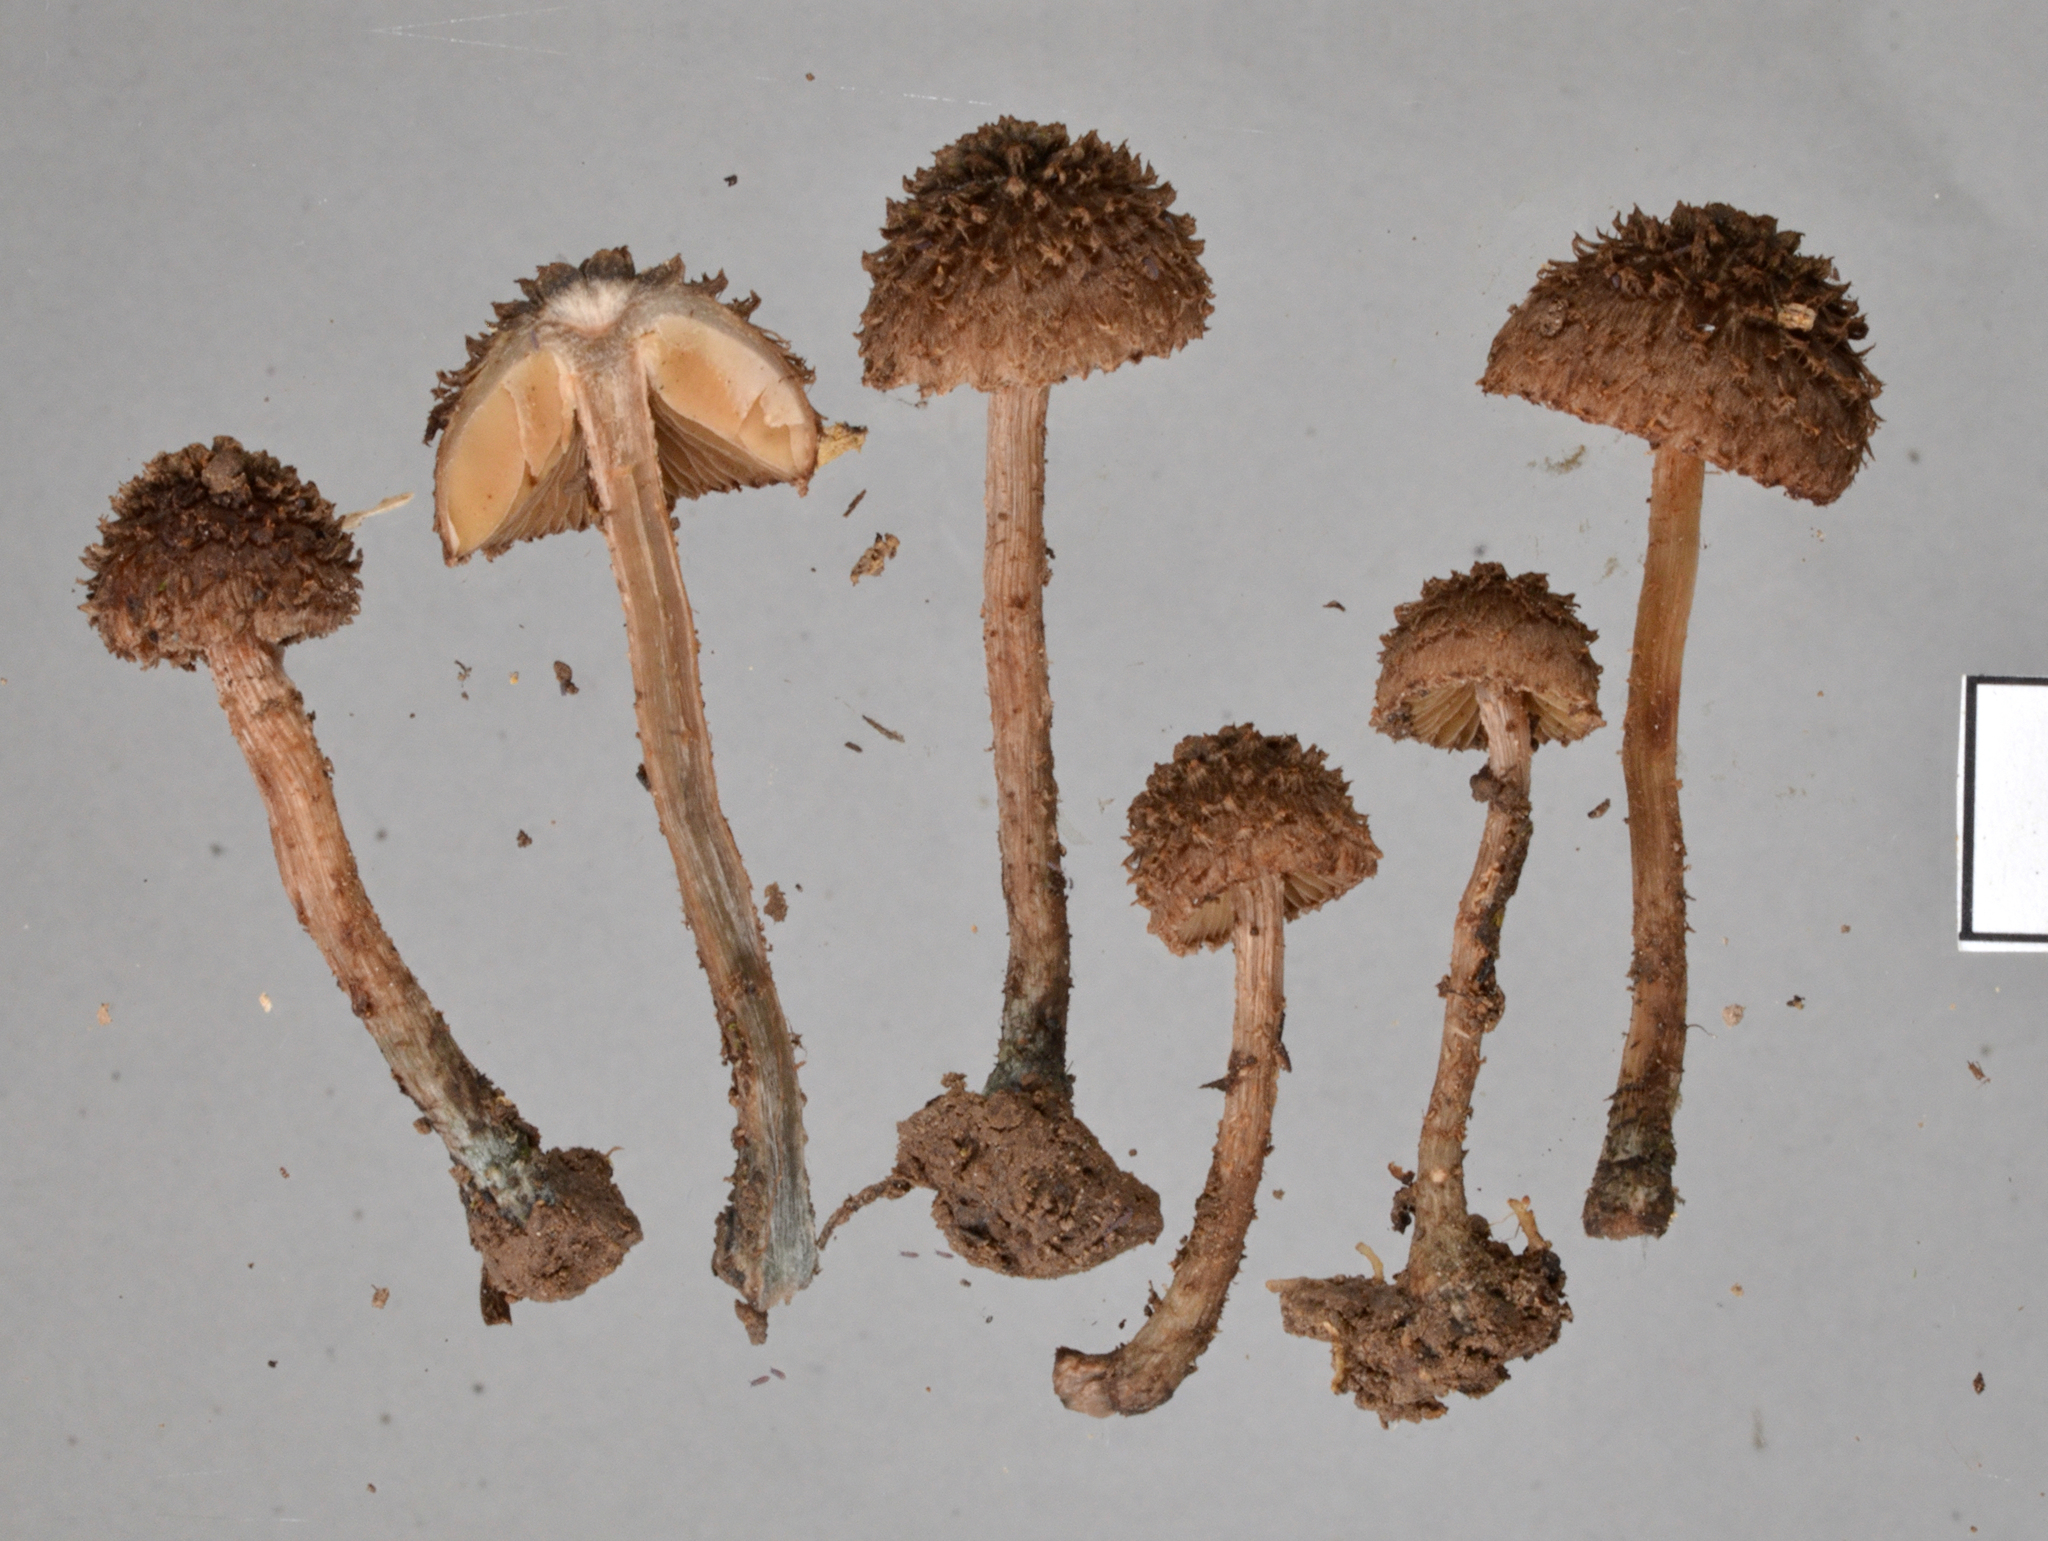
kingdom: Fungi
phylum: Basidiomycota
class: Agaricomycetes
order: Agaricales
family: Inocybaceae
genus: Inosperma
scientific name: Inosperma calamistratoides
